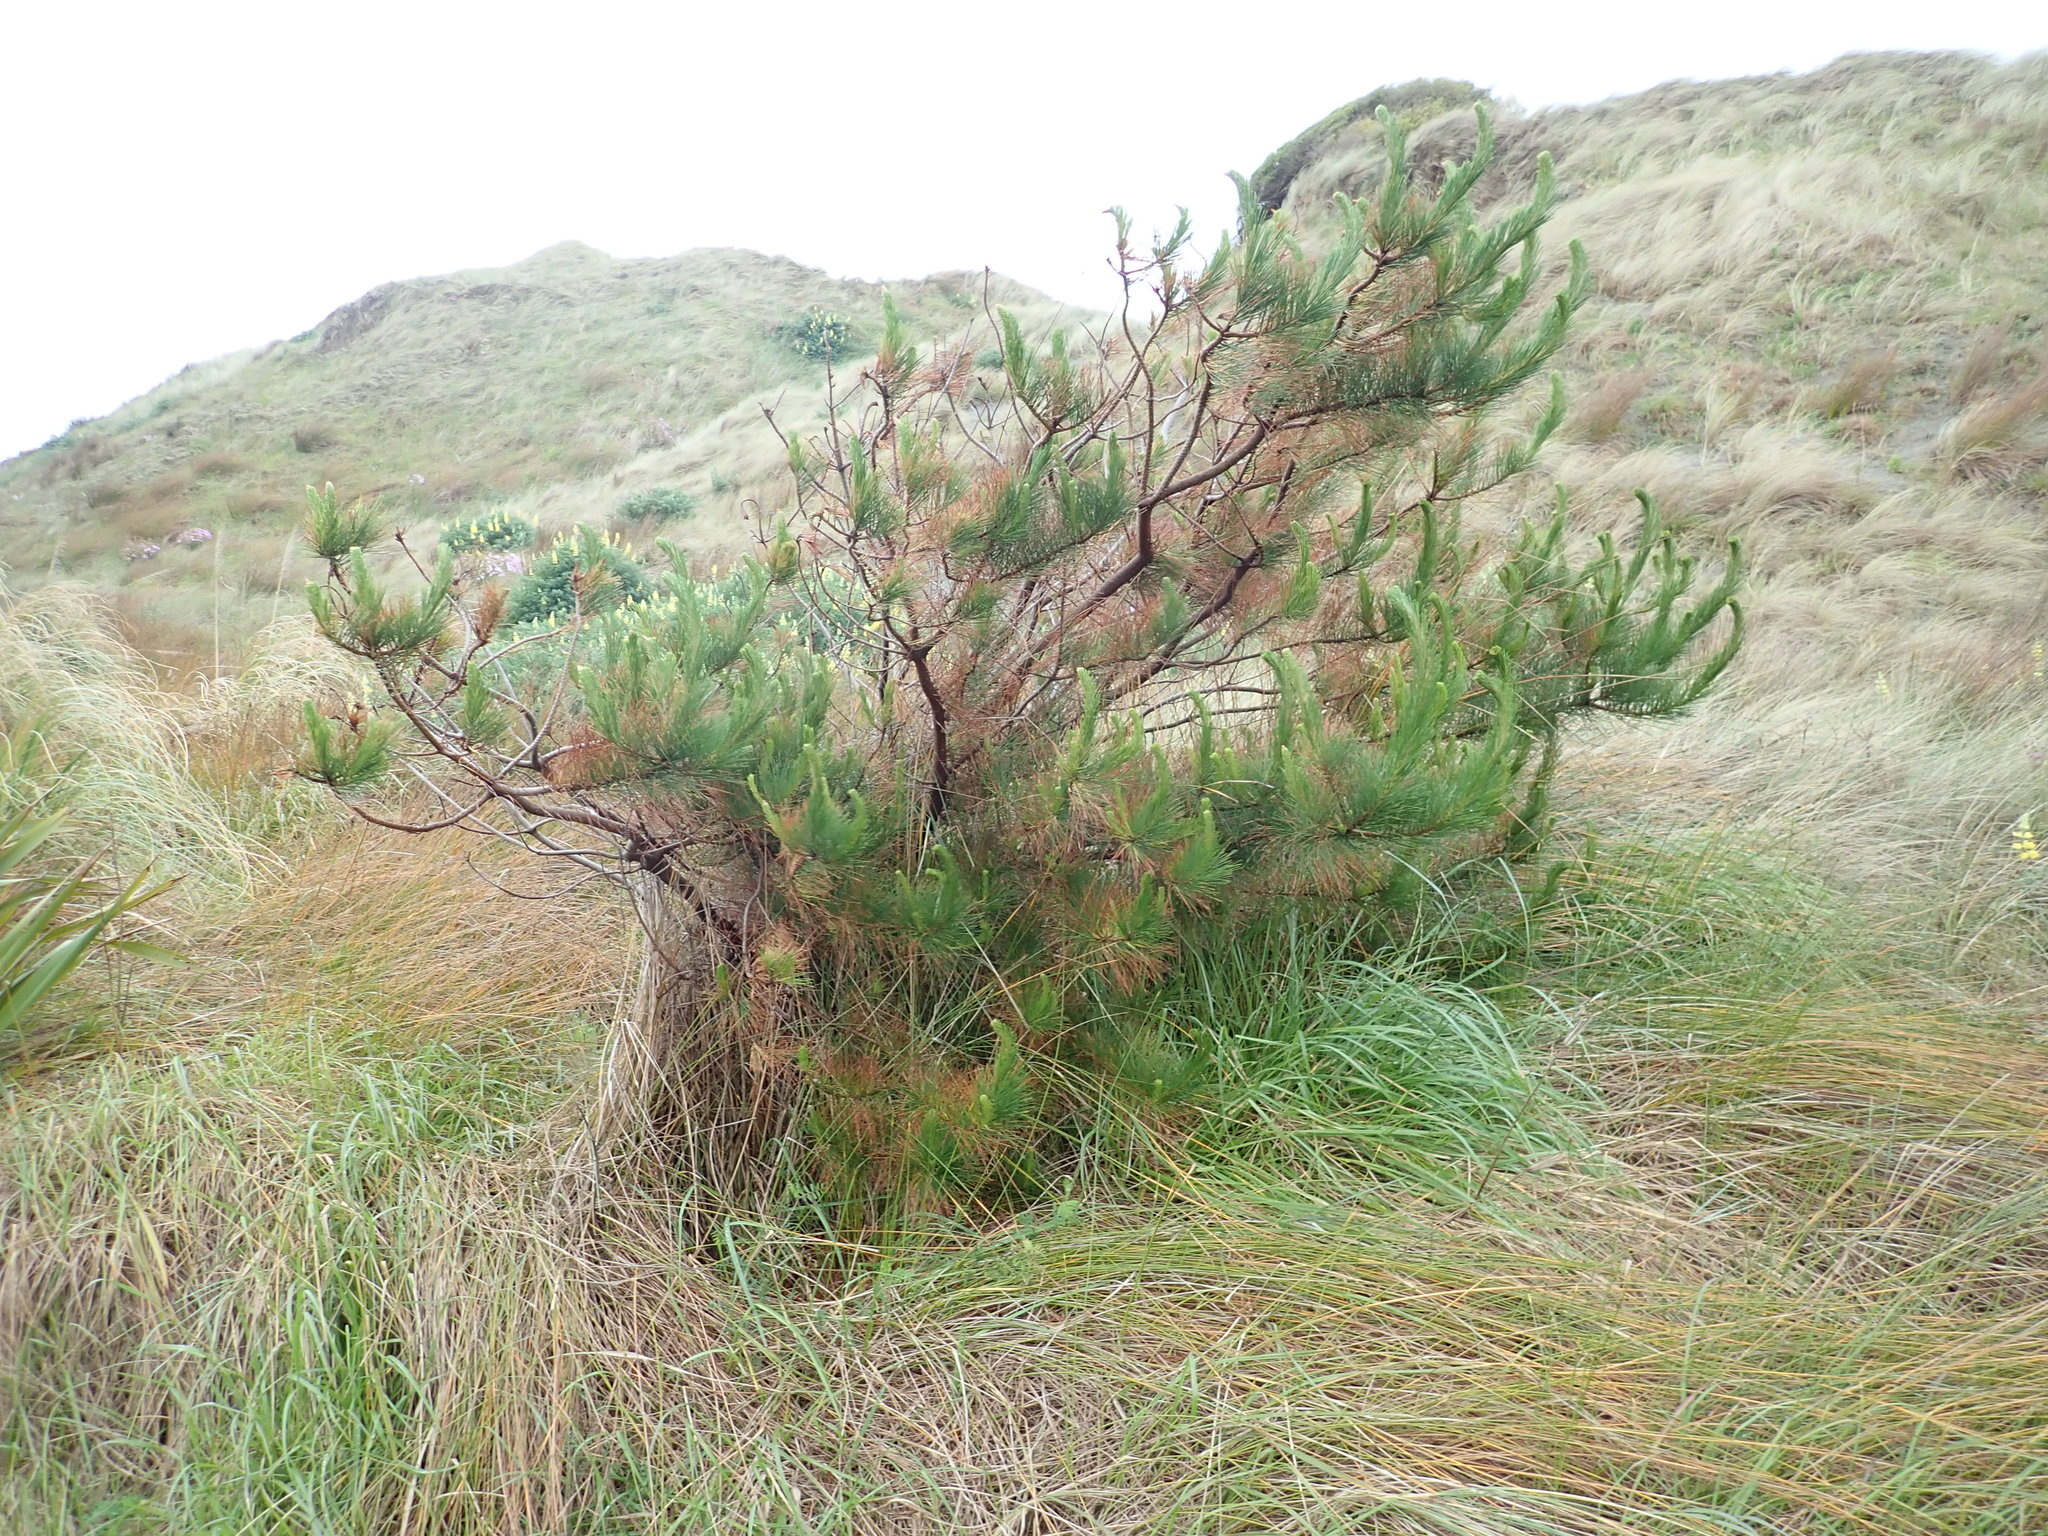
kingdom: Plantae
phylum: Tracheophyta
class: Pinopsida
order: Pinales
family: Pinaceae
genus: Pinus
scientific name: Pinus radiata
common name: Monterey pine
